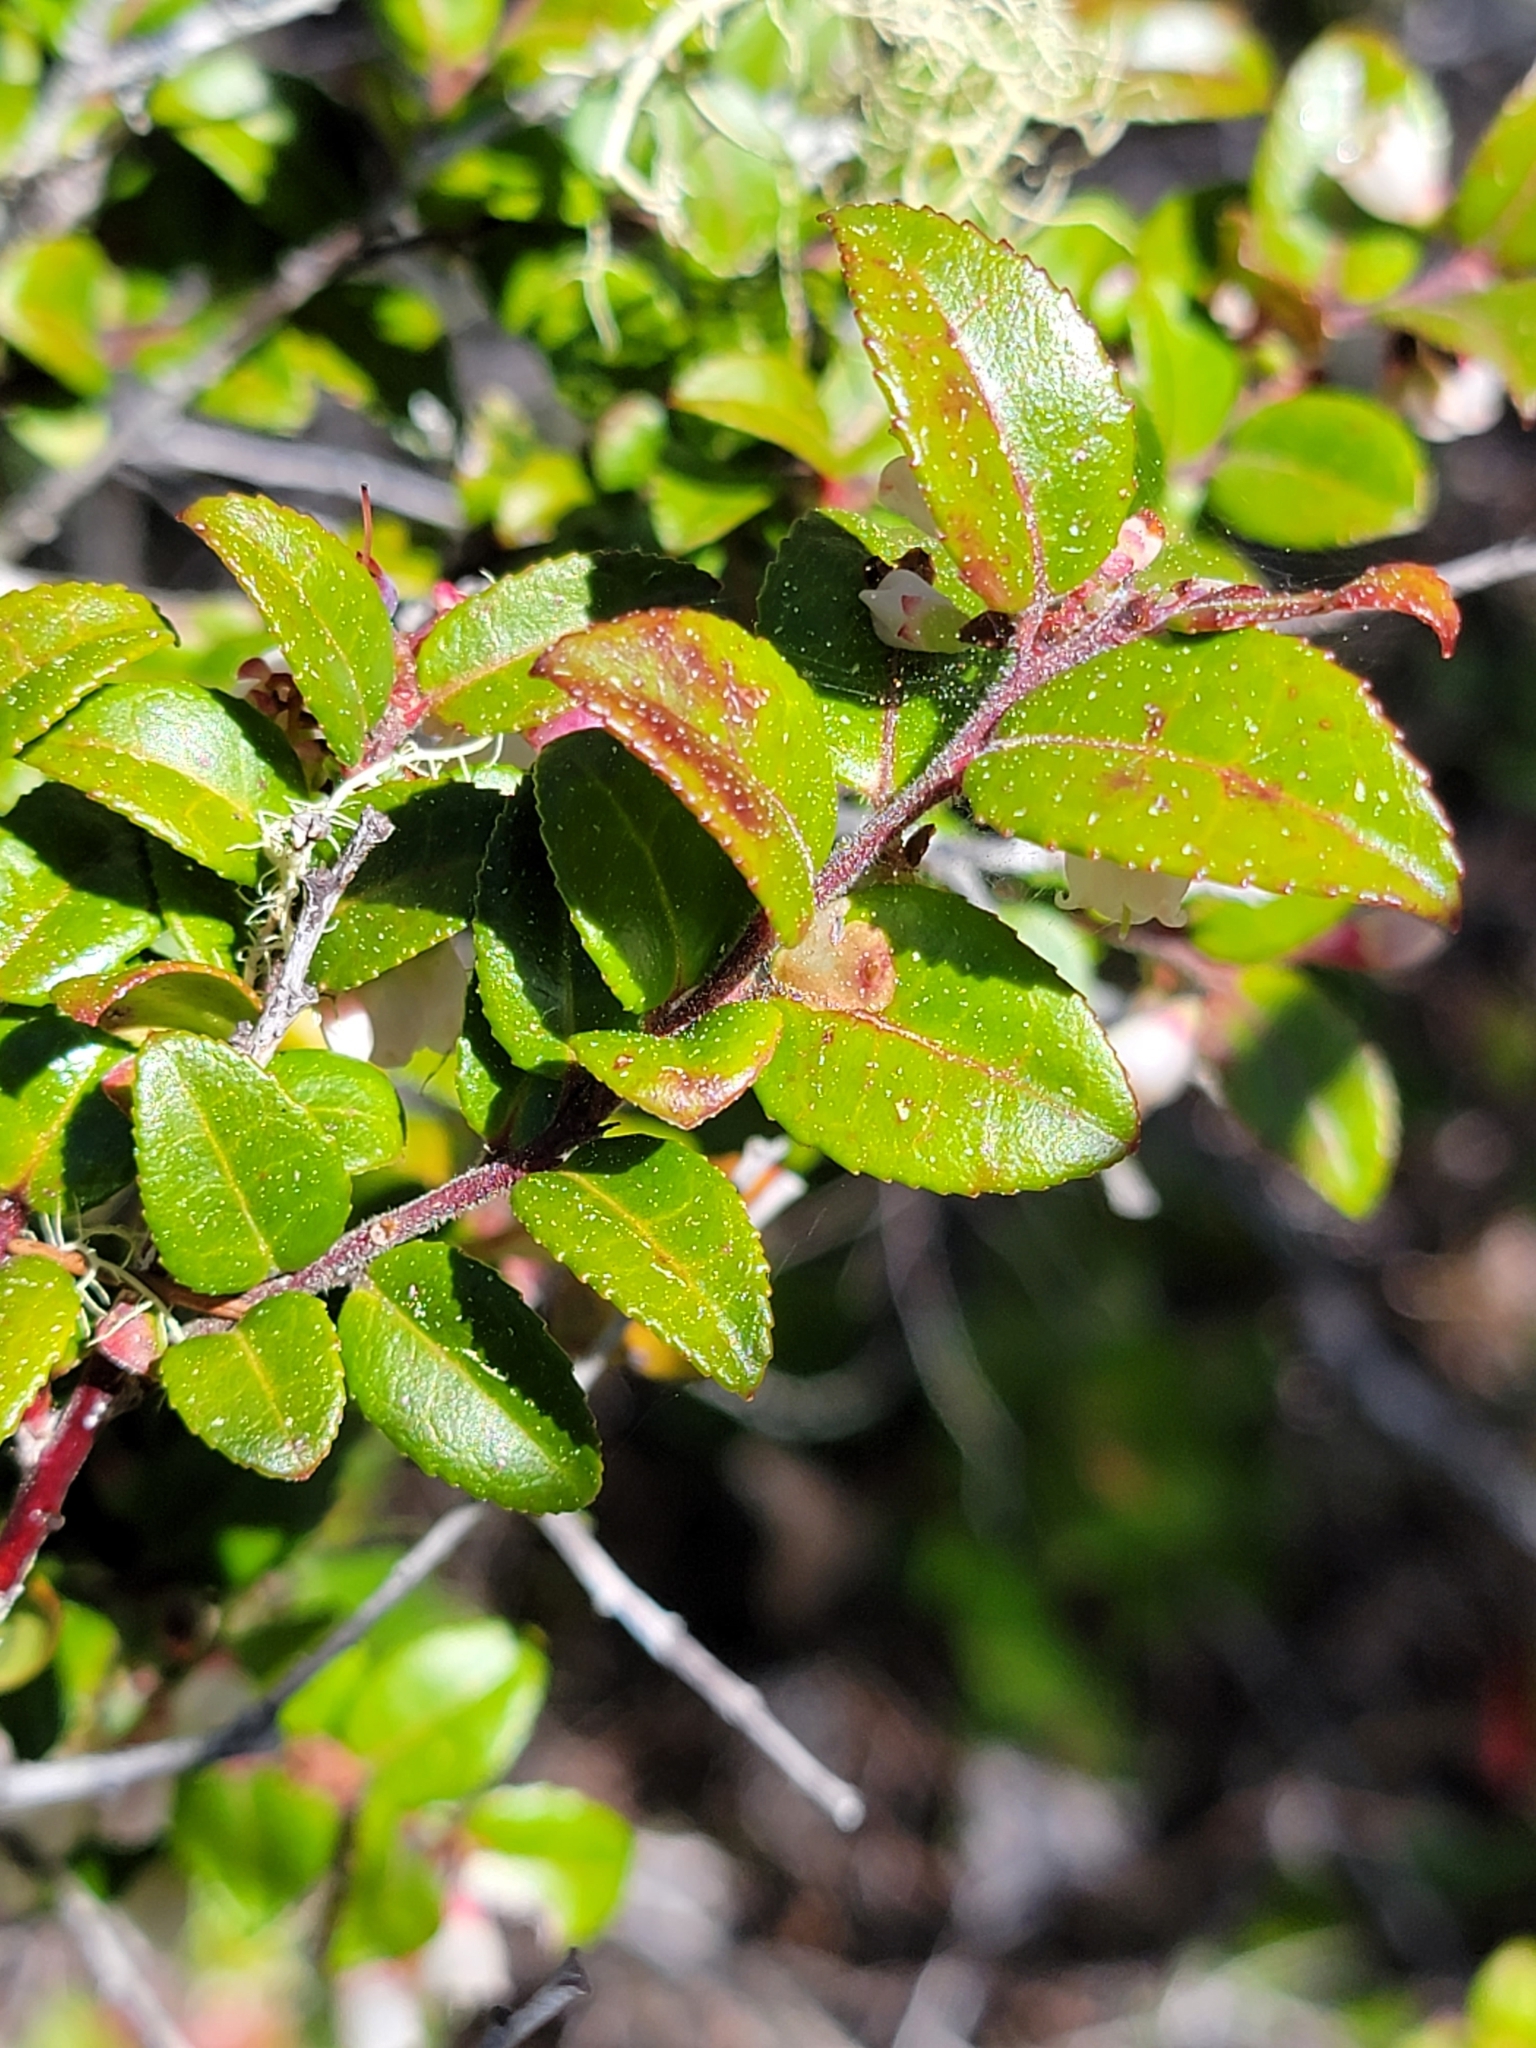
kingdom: Plantae
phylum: Tracheophyta
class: Magnoliopsida
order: Ericales
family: Ericaceae
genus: Vaccinium
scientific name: Vaccinium ovatum
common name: California-huckleberry
